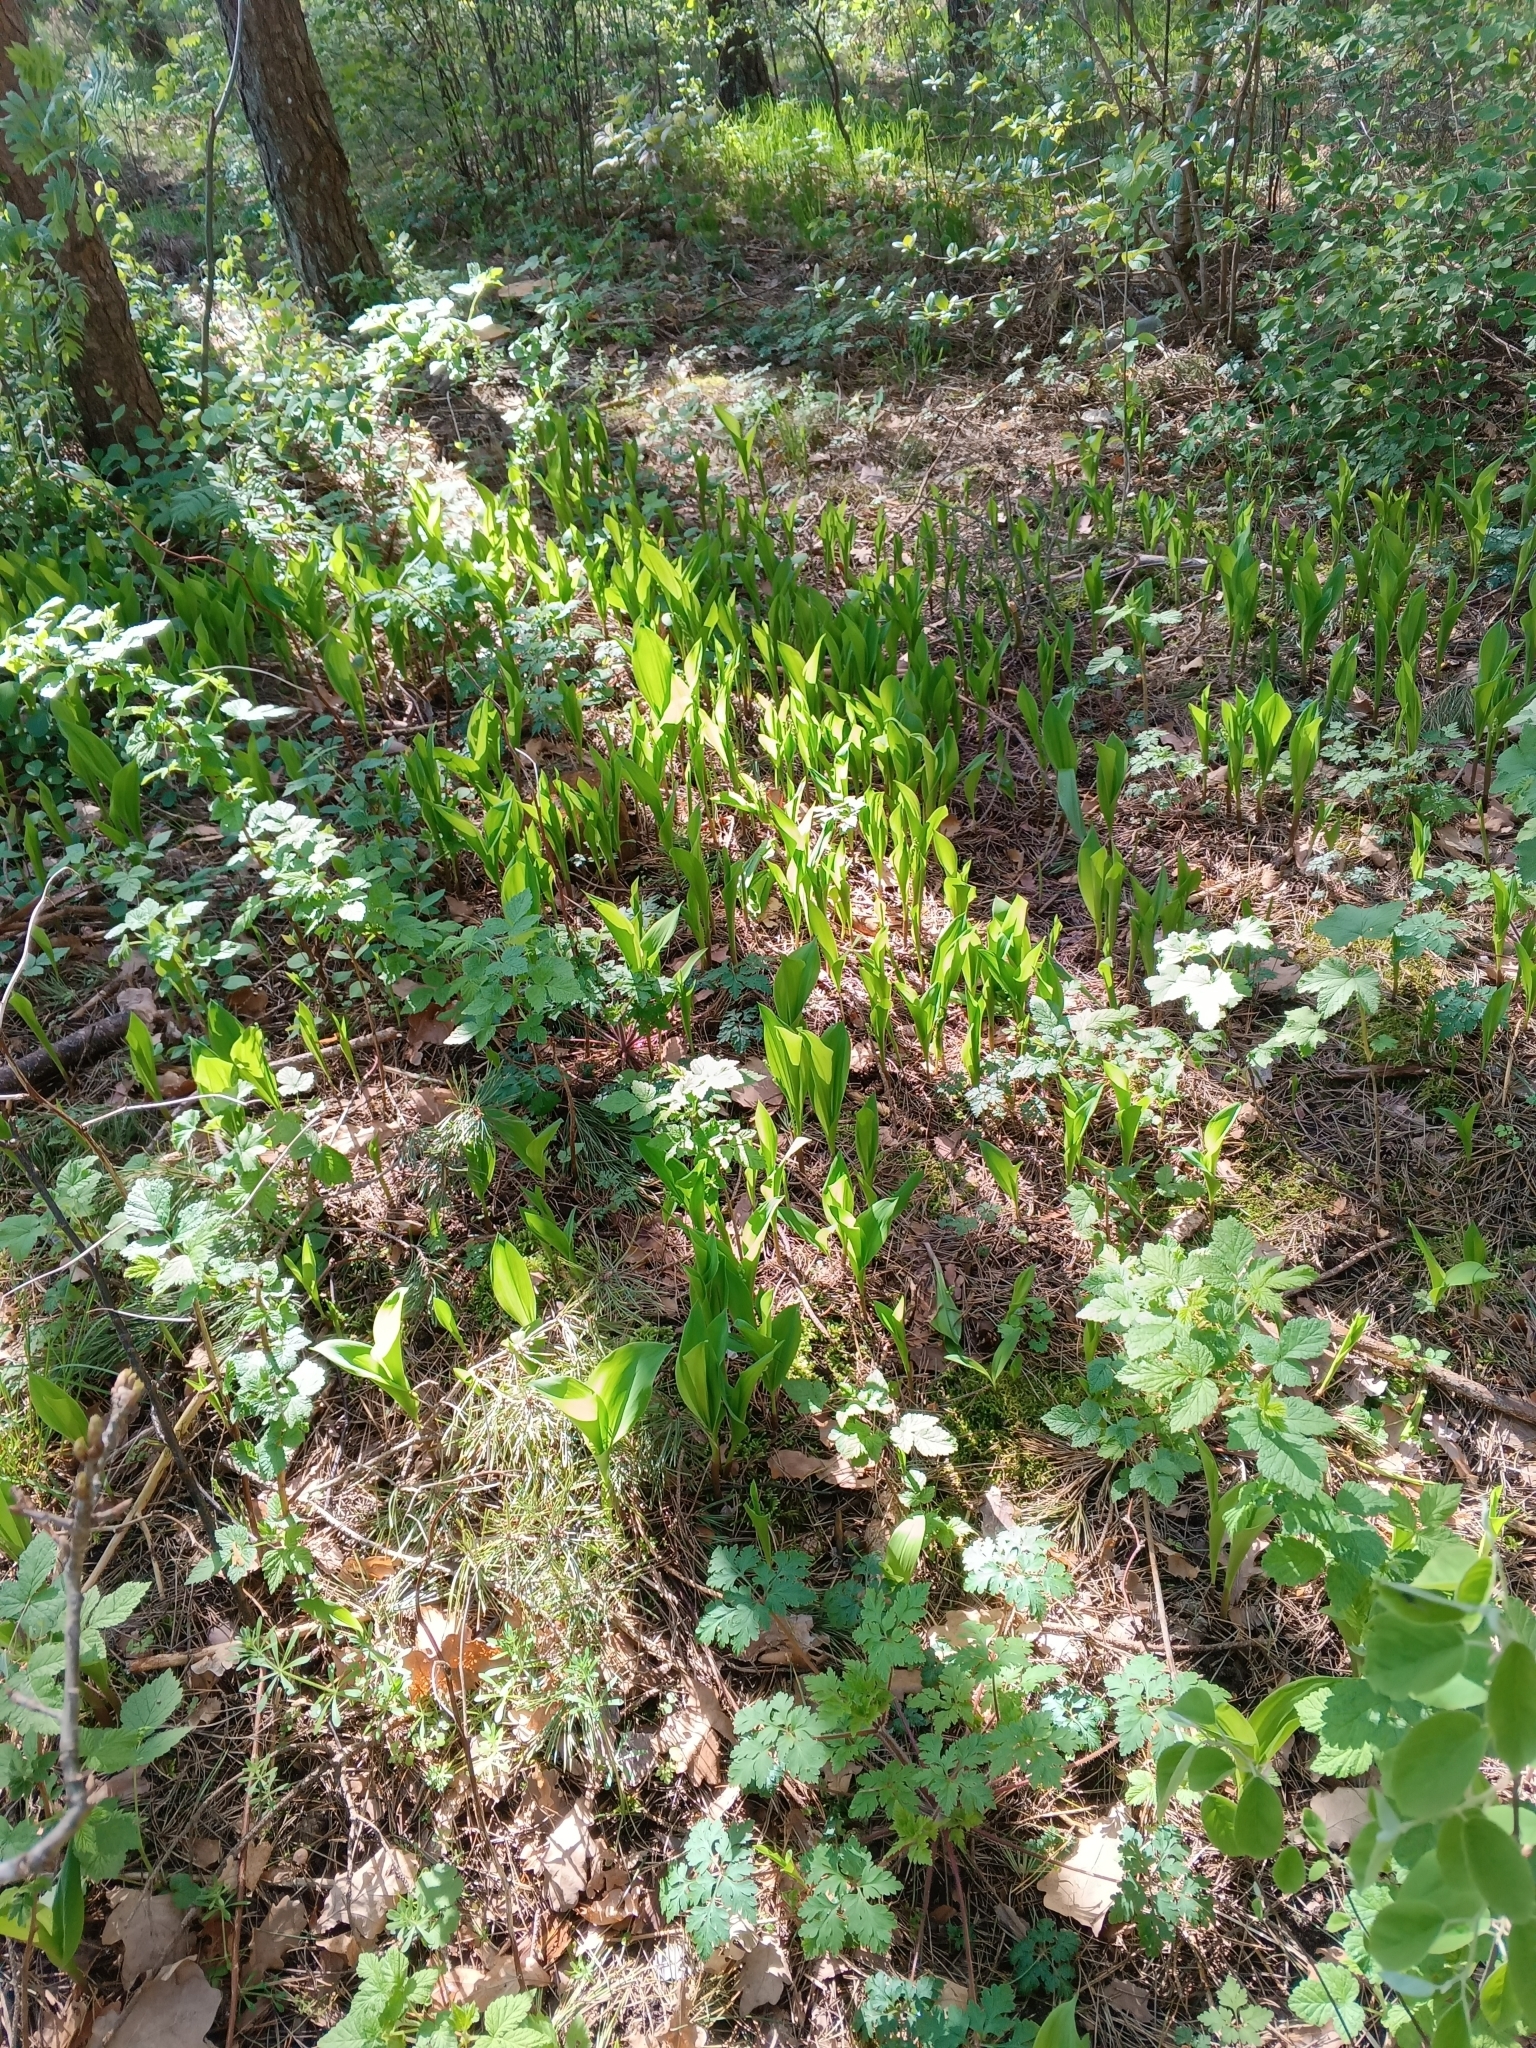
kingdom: Plantae
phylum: Tracheophyta
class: Liliopsida
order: Asparagales
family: Asparagaceae
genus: Convallaria
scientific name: Convallaria majalis
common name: Lily-of-the-valley
